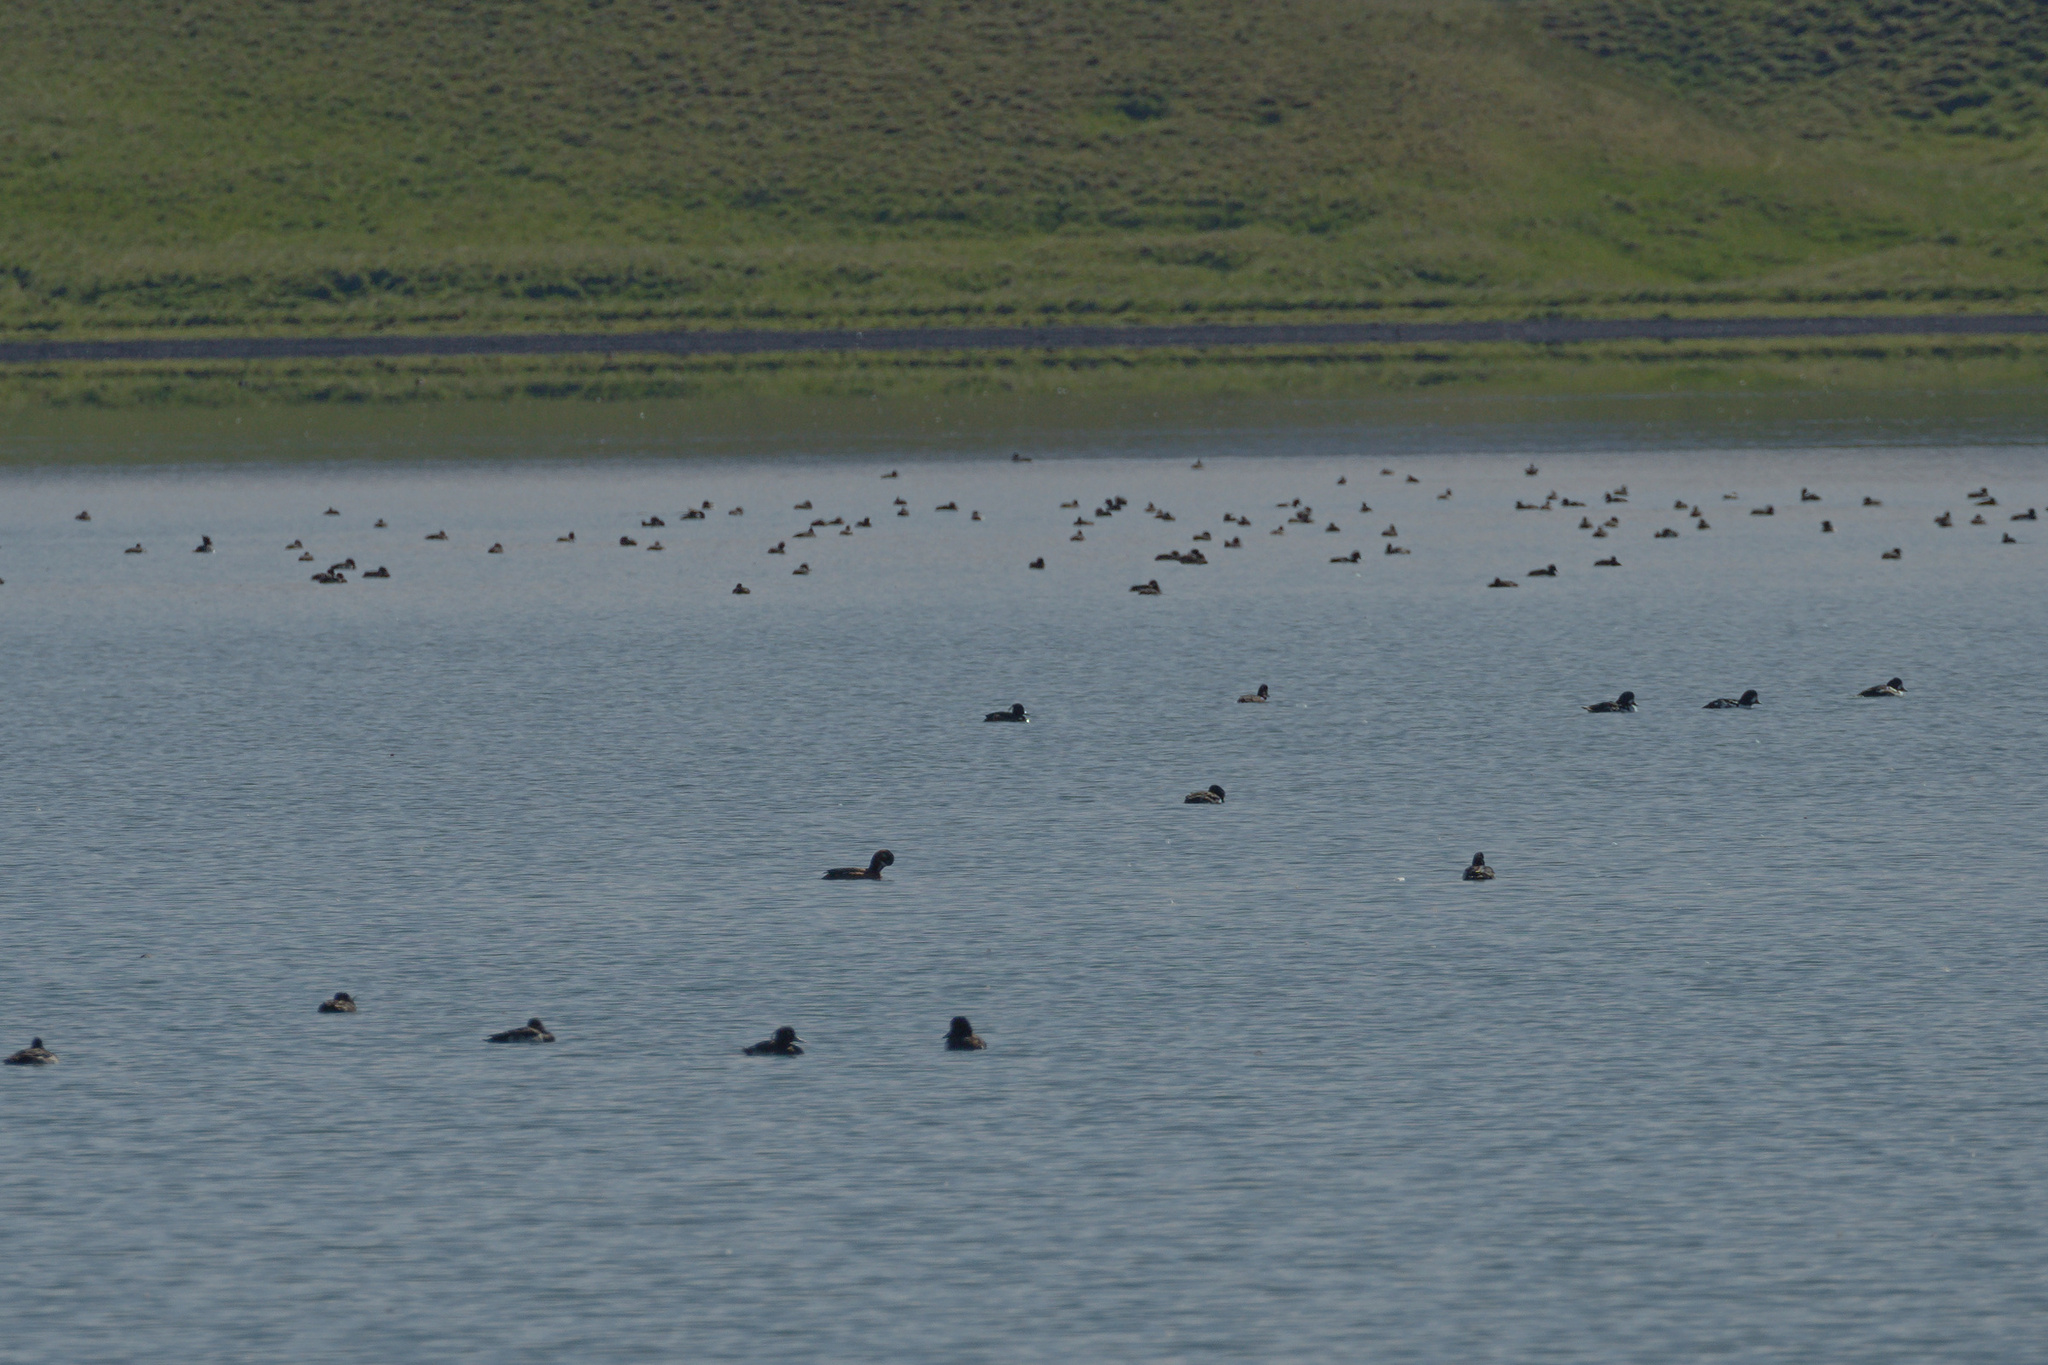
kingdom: Animalia
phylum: Chordata
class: Aves
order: Anseriformes
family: Anatidae
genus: Aythya
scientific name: Aythya fuligula
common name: Tufted duck
